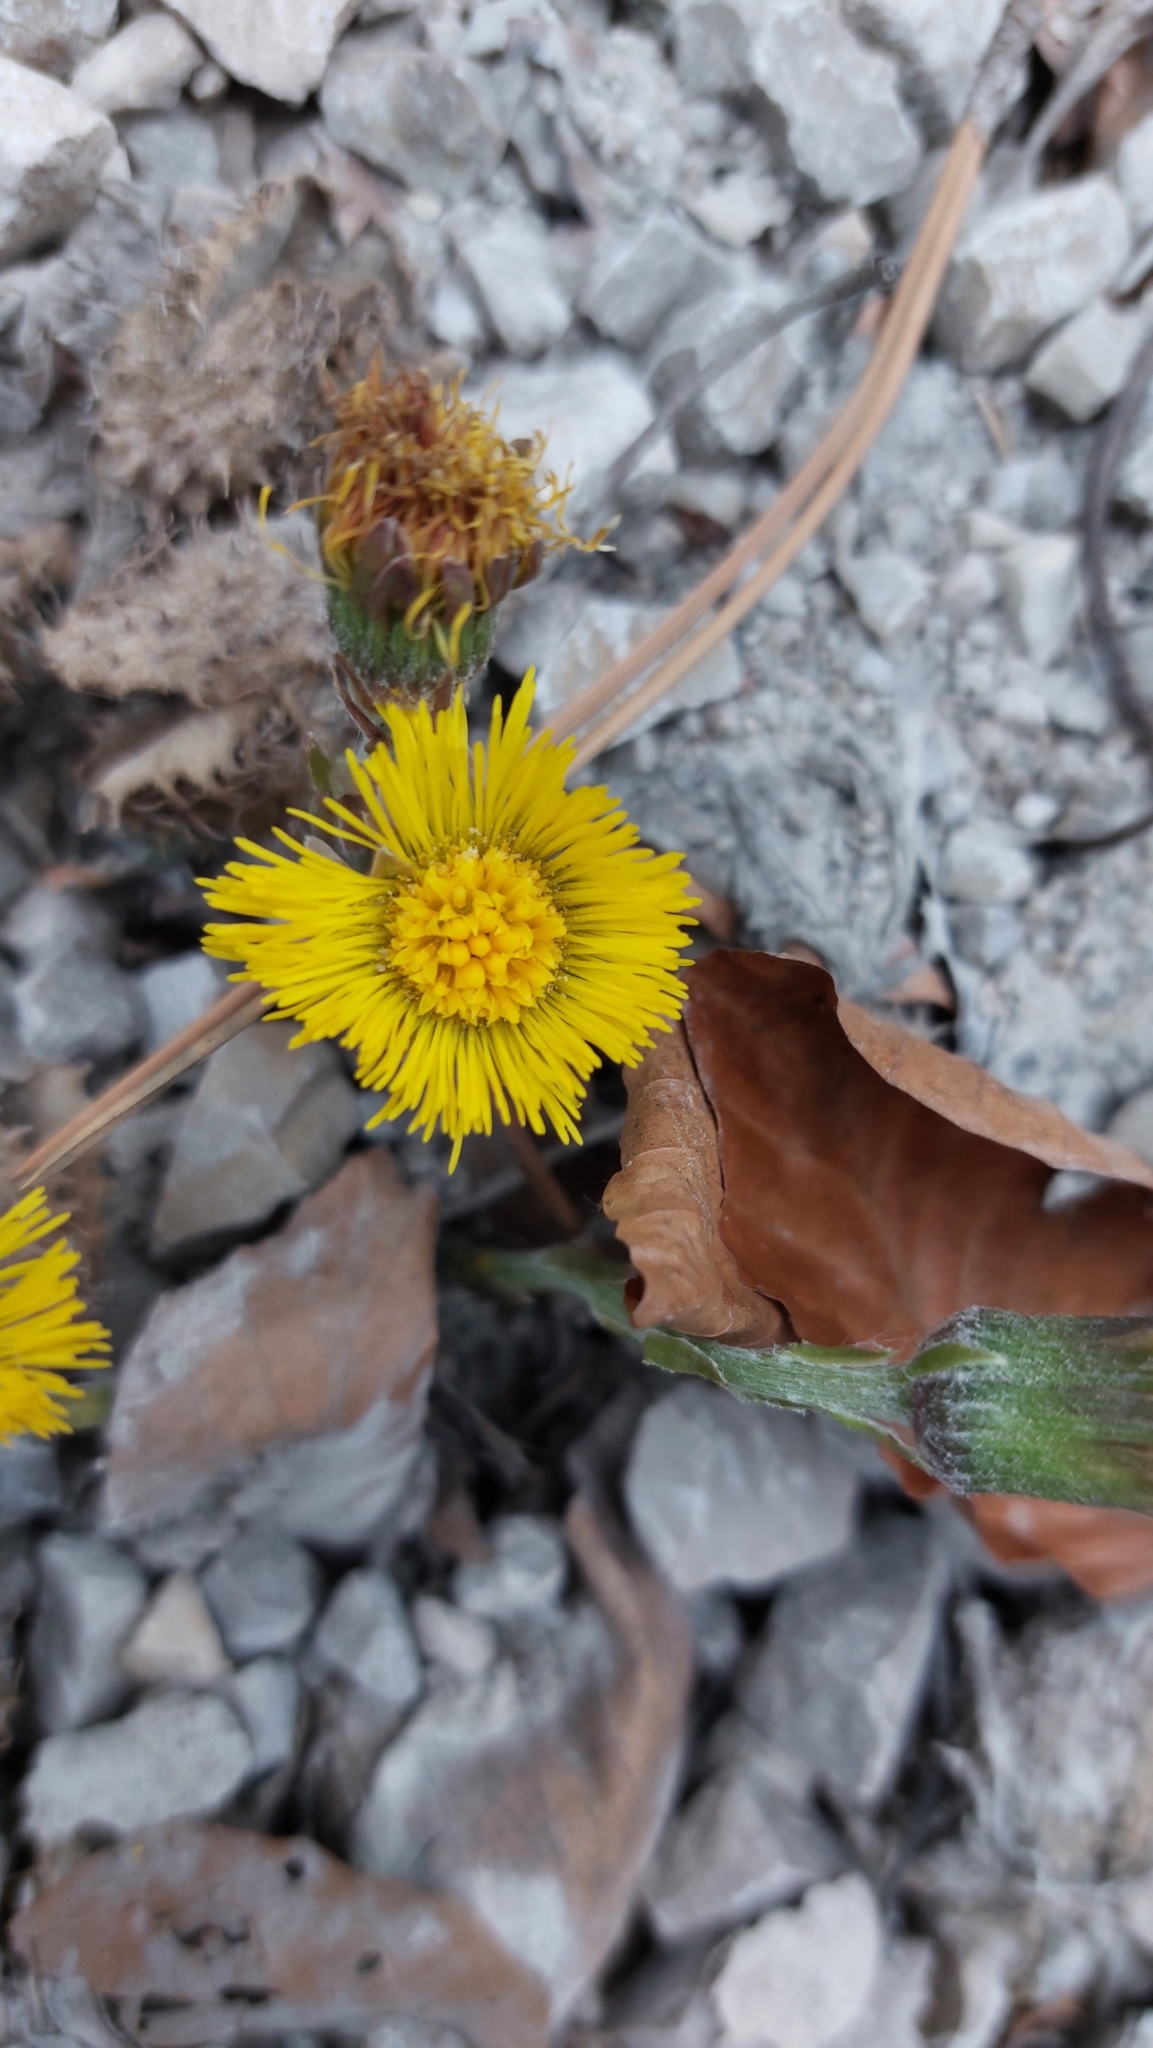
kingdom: Plantae
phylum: Tracheophyta
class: Magnoliopsida
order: Asterales
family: Asteraceae
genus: Tussilago
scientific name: Tussilago farfara
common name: Coltsfoot
